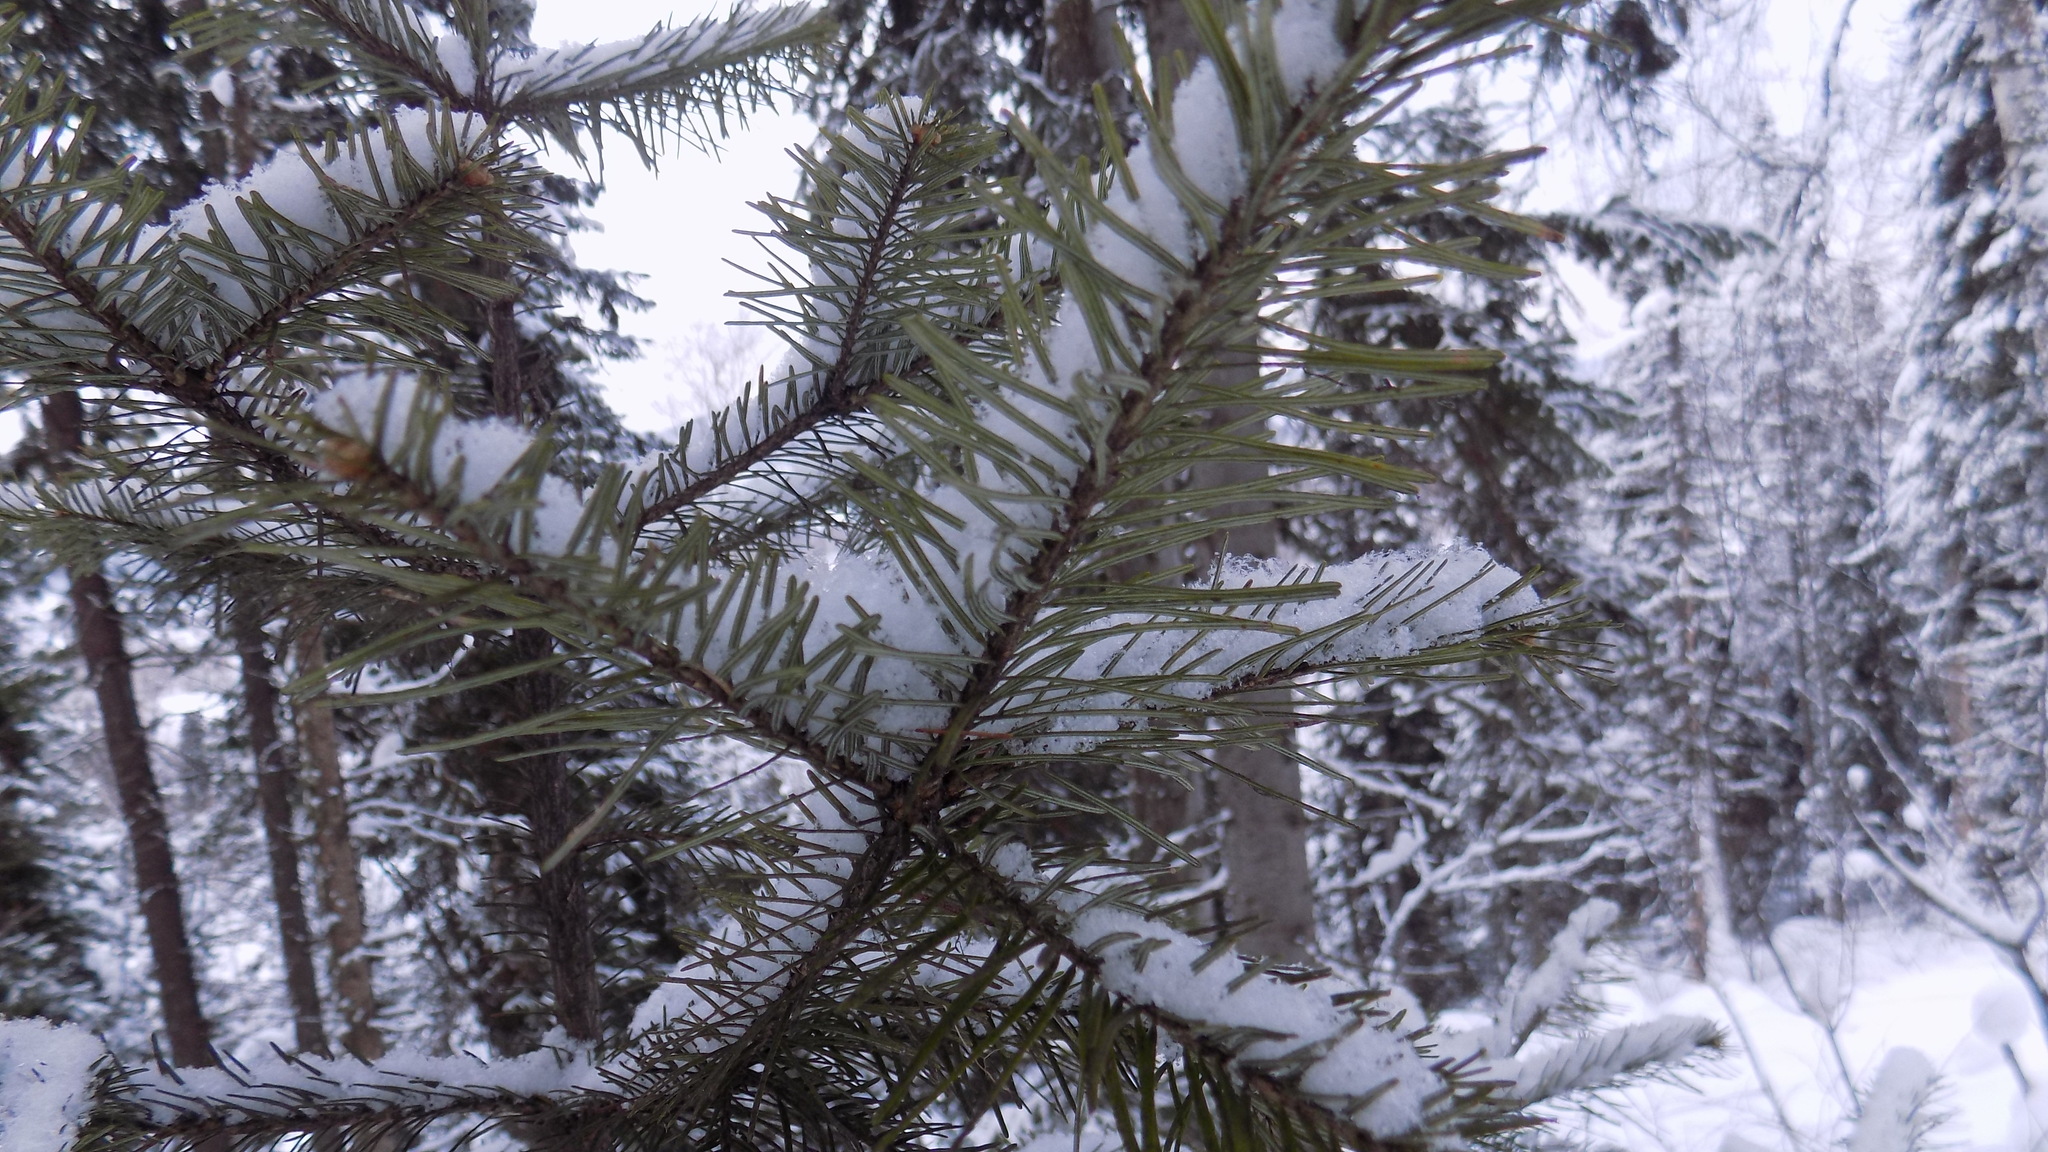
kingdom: Plantae
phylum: Tracheophyta
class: Pinopsida
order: Pinales
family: Pinaceae
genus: Abies
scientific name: Abies sibirica
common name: Siberian fir
